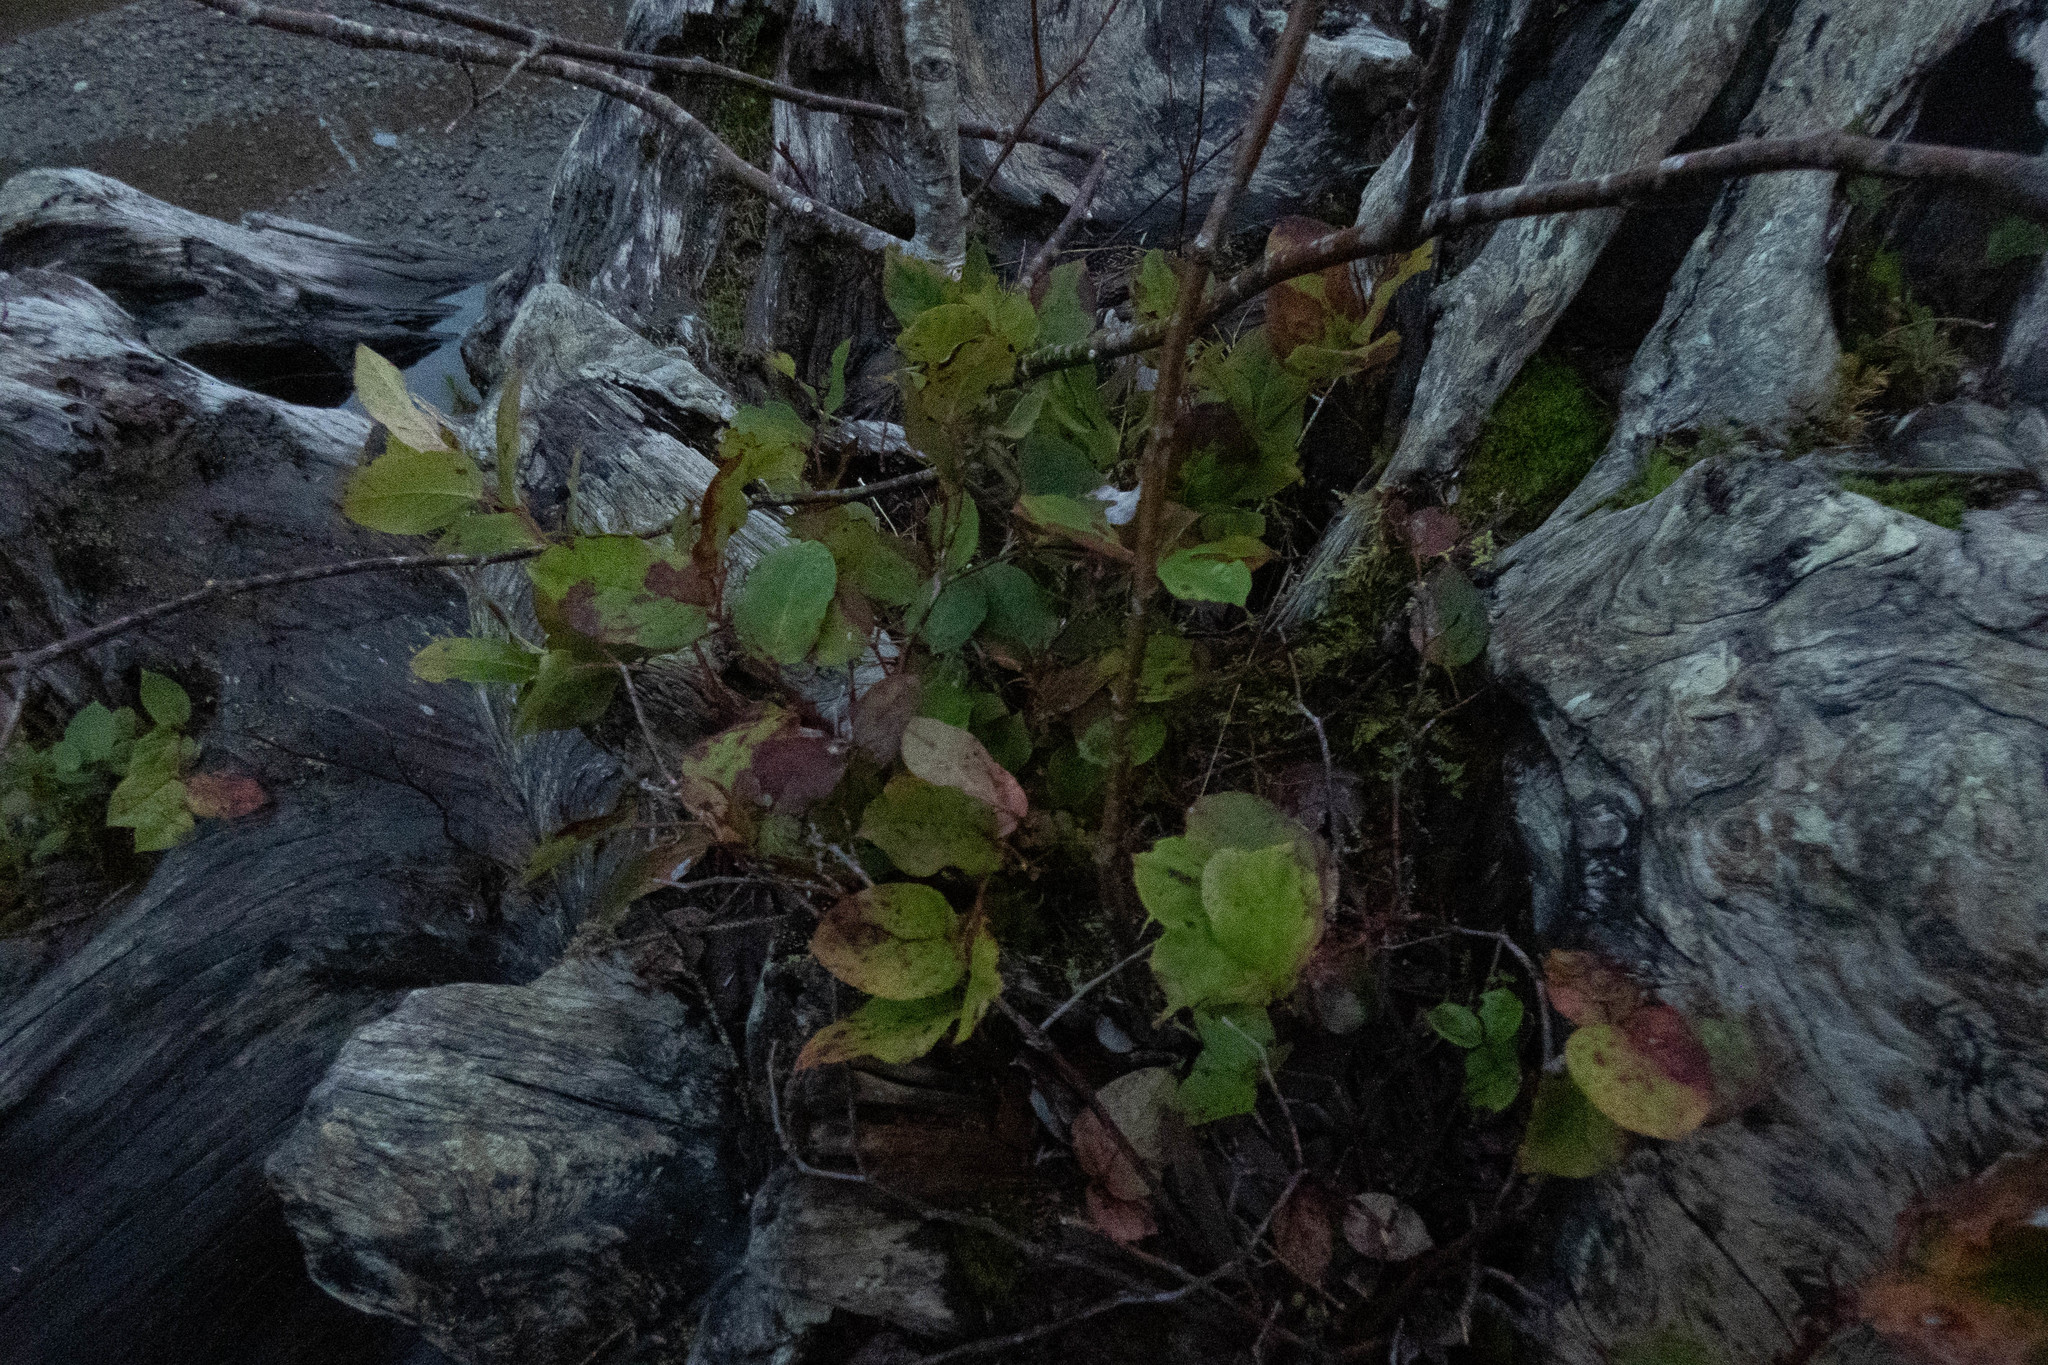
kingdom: Plantae
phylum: Tracheophyta
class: Magnoliopsida
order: Ericales
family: Ericaceae
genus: Gaultheria
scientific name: Gaultheria shallon
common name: Shallon
